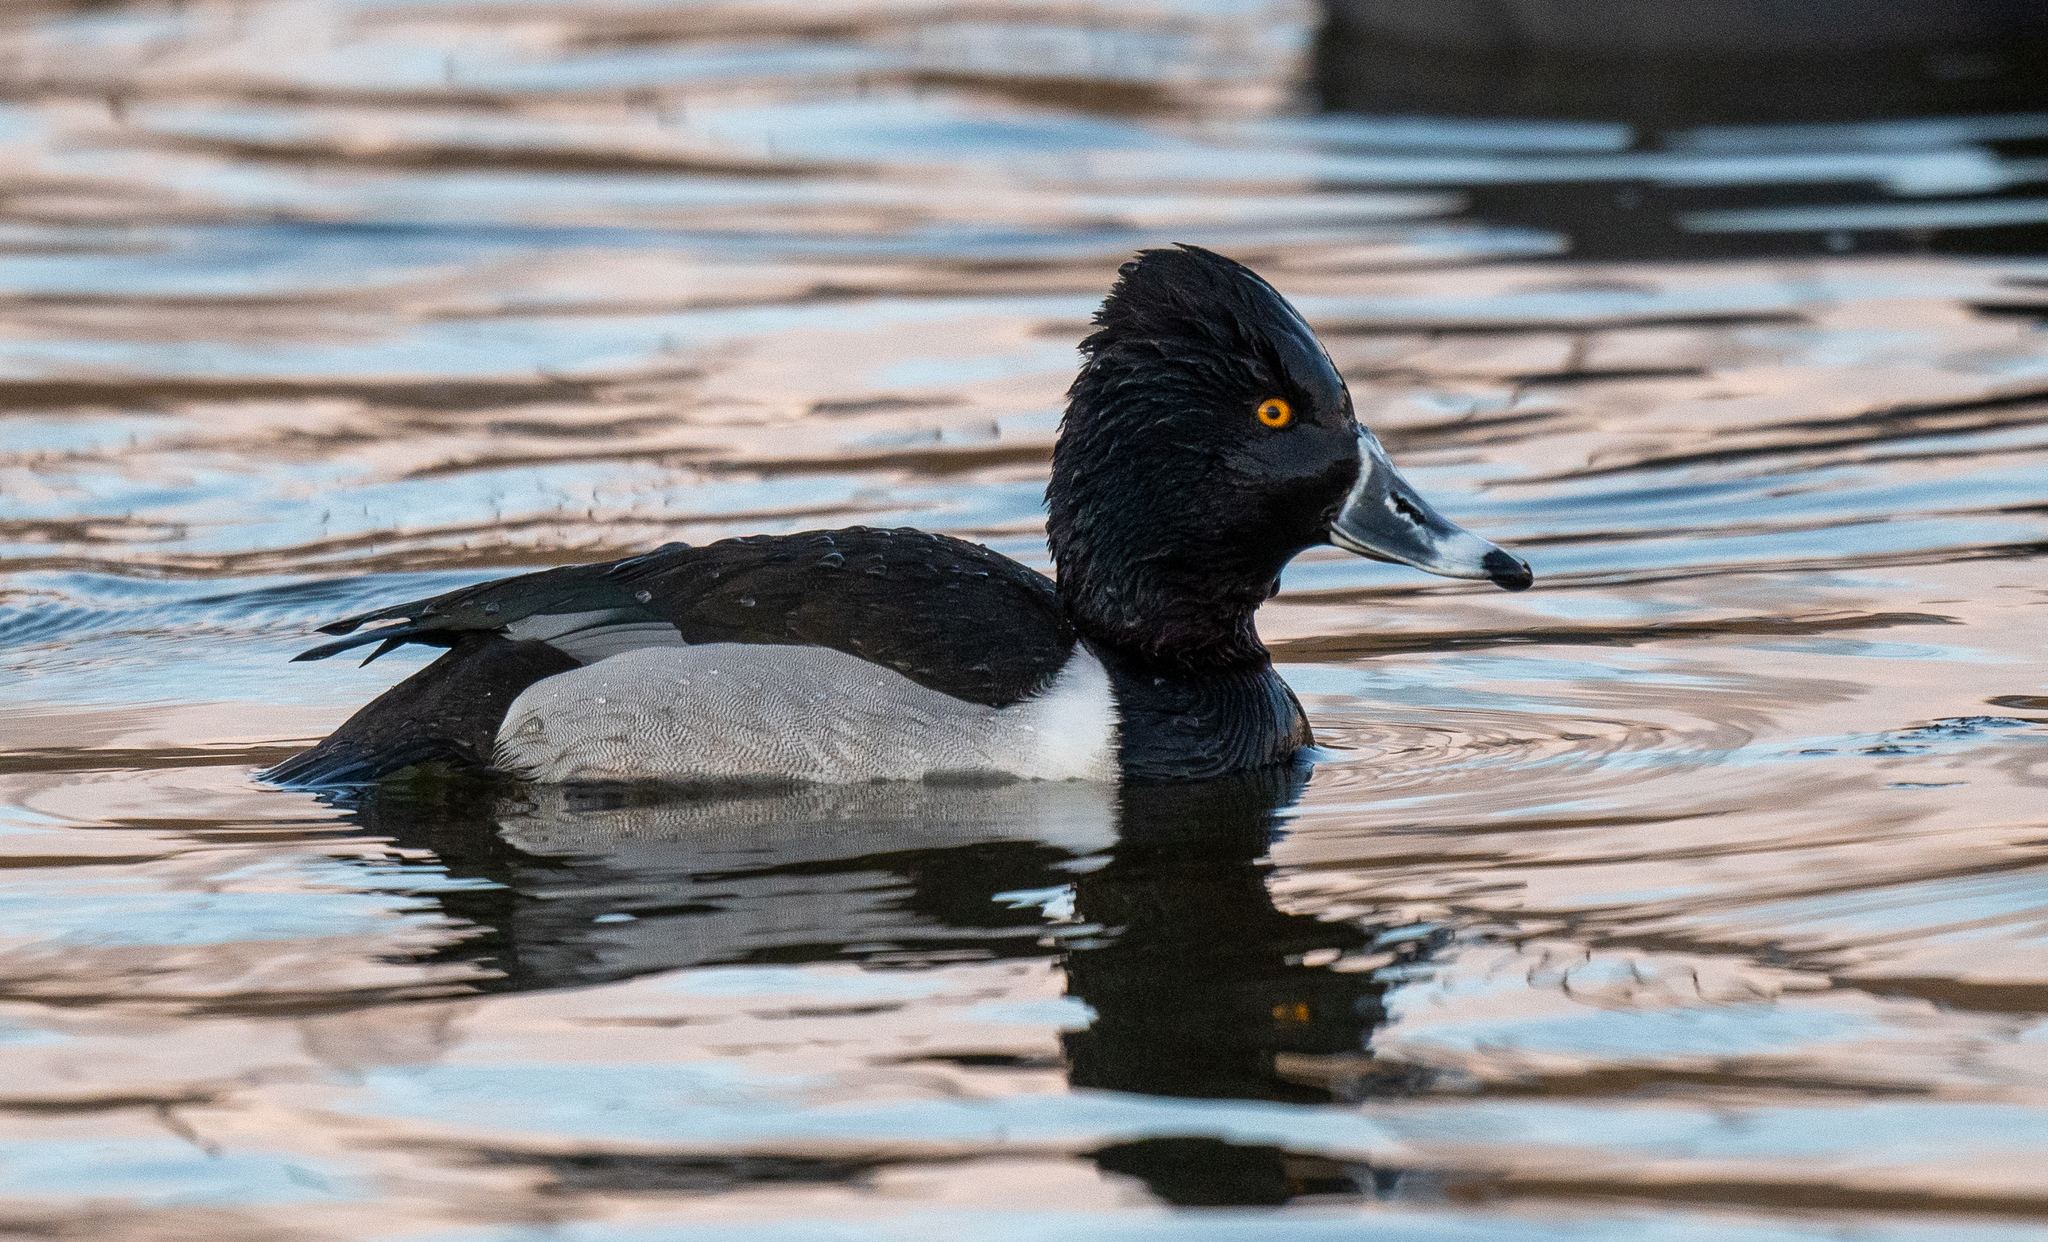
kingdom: Animalia
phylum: Chordata
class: Aves
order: Anseriformes
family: Anatidae
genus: Aythya
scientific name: Aythya collaris
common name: Ring-necked duck
